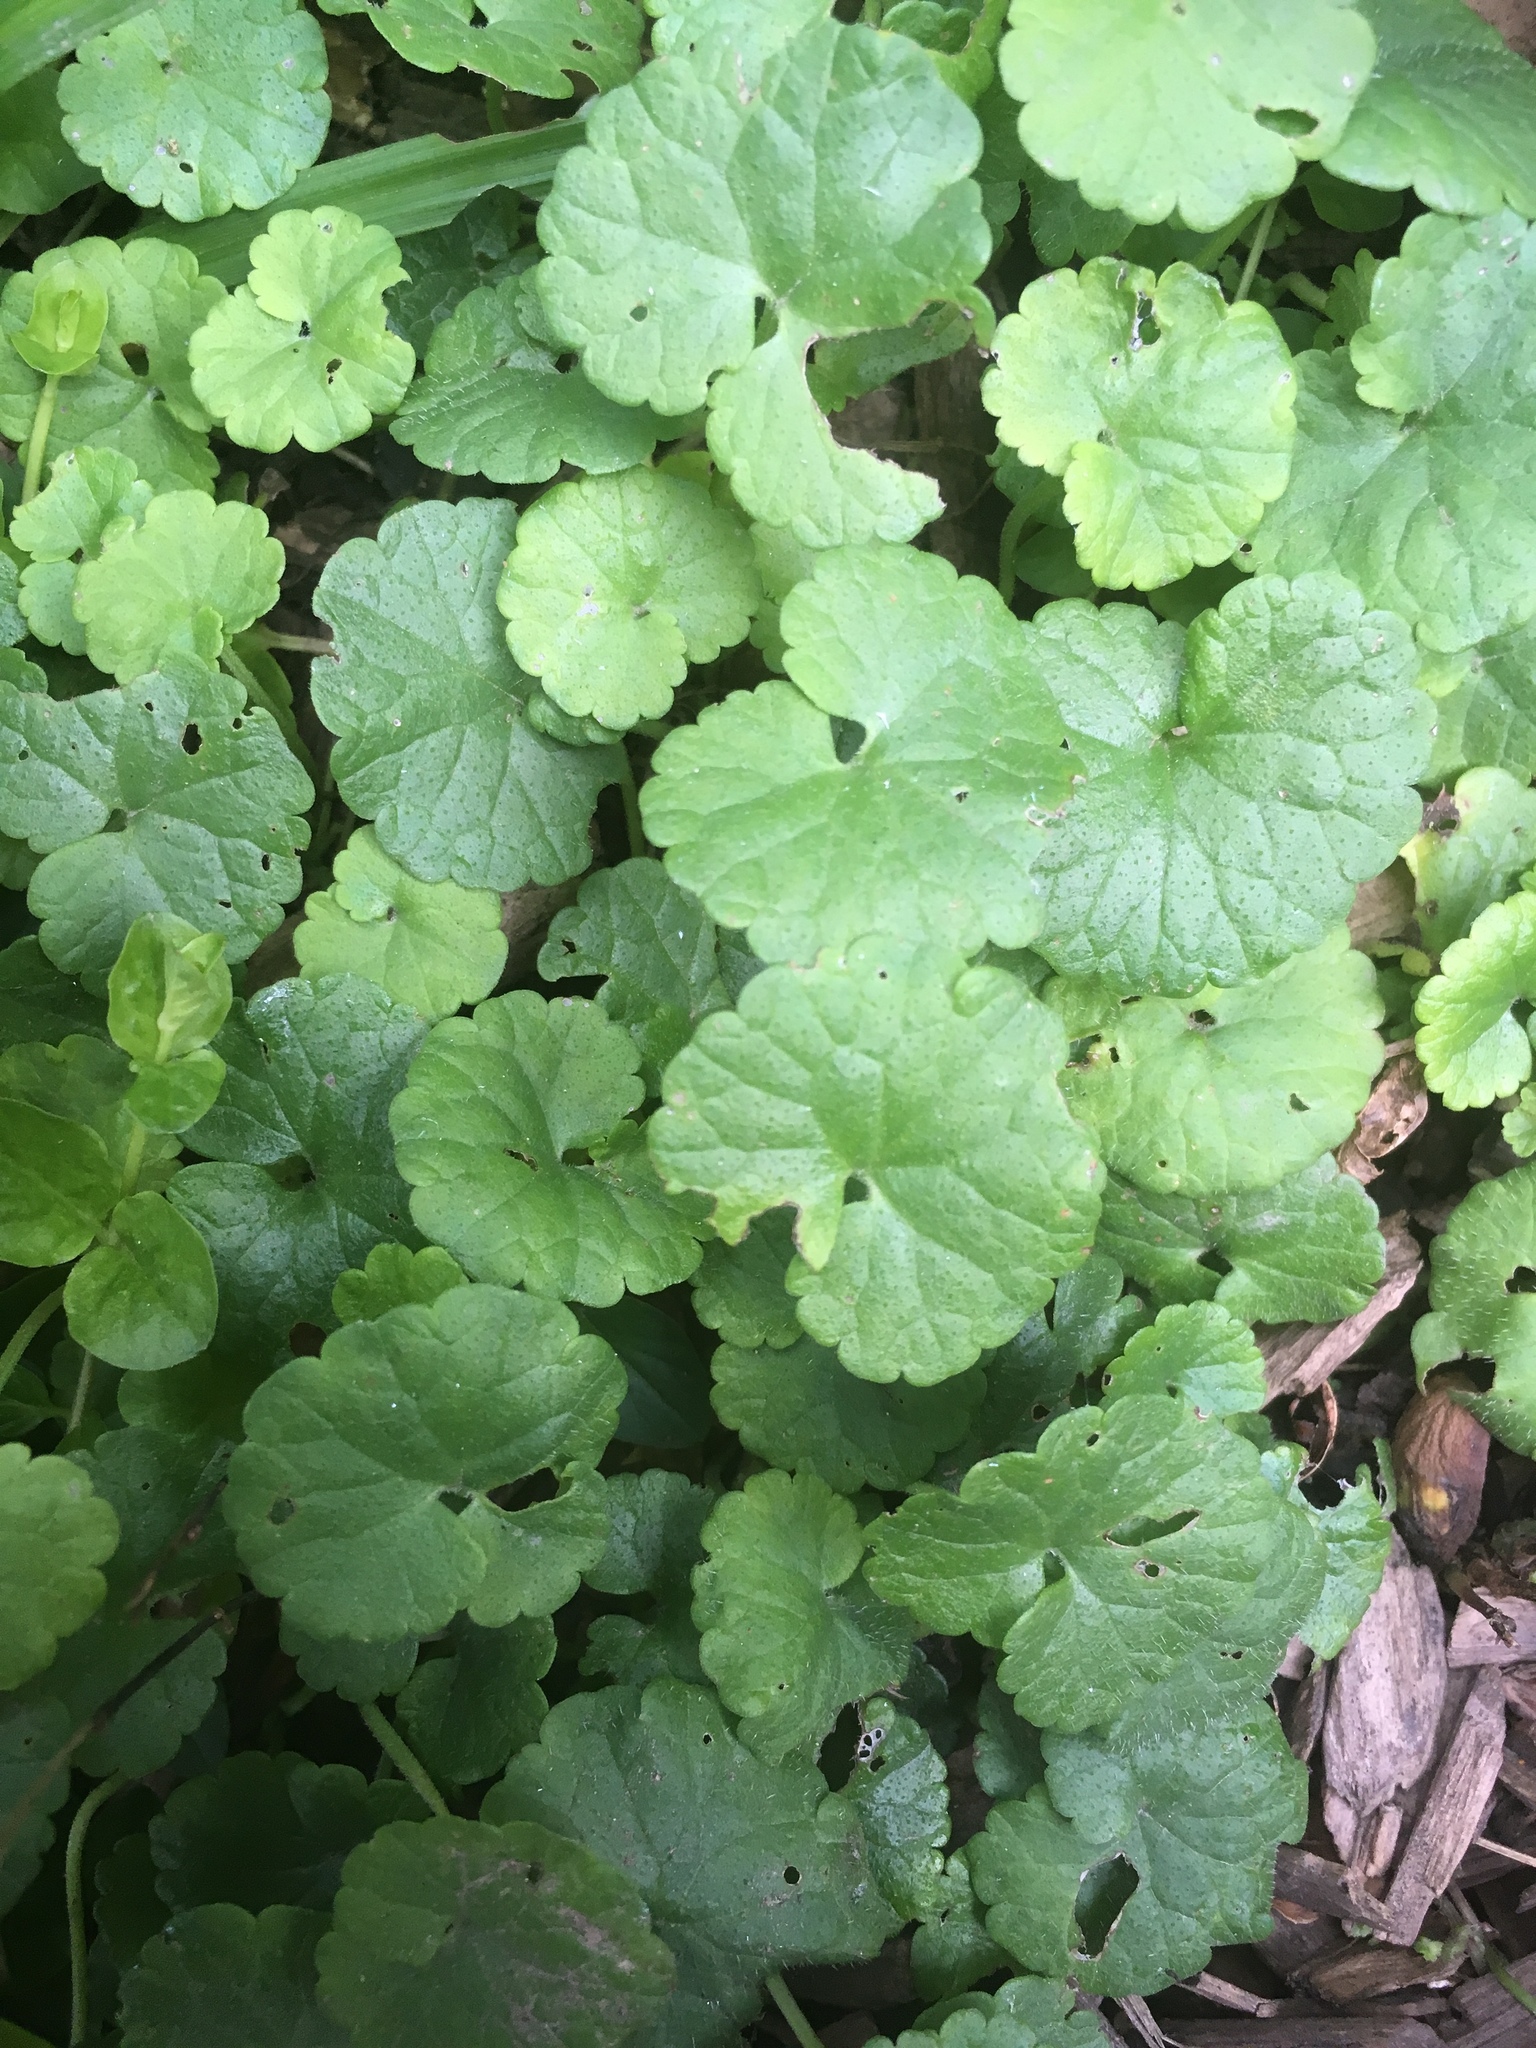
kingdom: Plantae
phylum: Tracheophyta
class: Magnoliopsida
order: Lamiales
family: Lamiaceae
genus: Glechoma
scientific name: Glechoma hederacea
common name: Ground ivy
